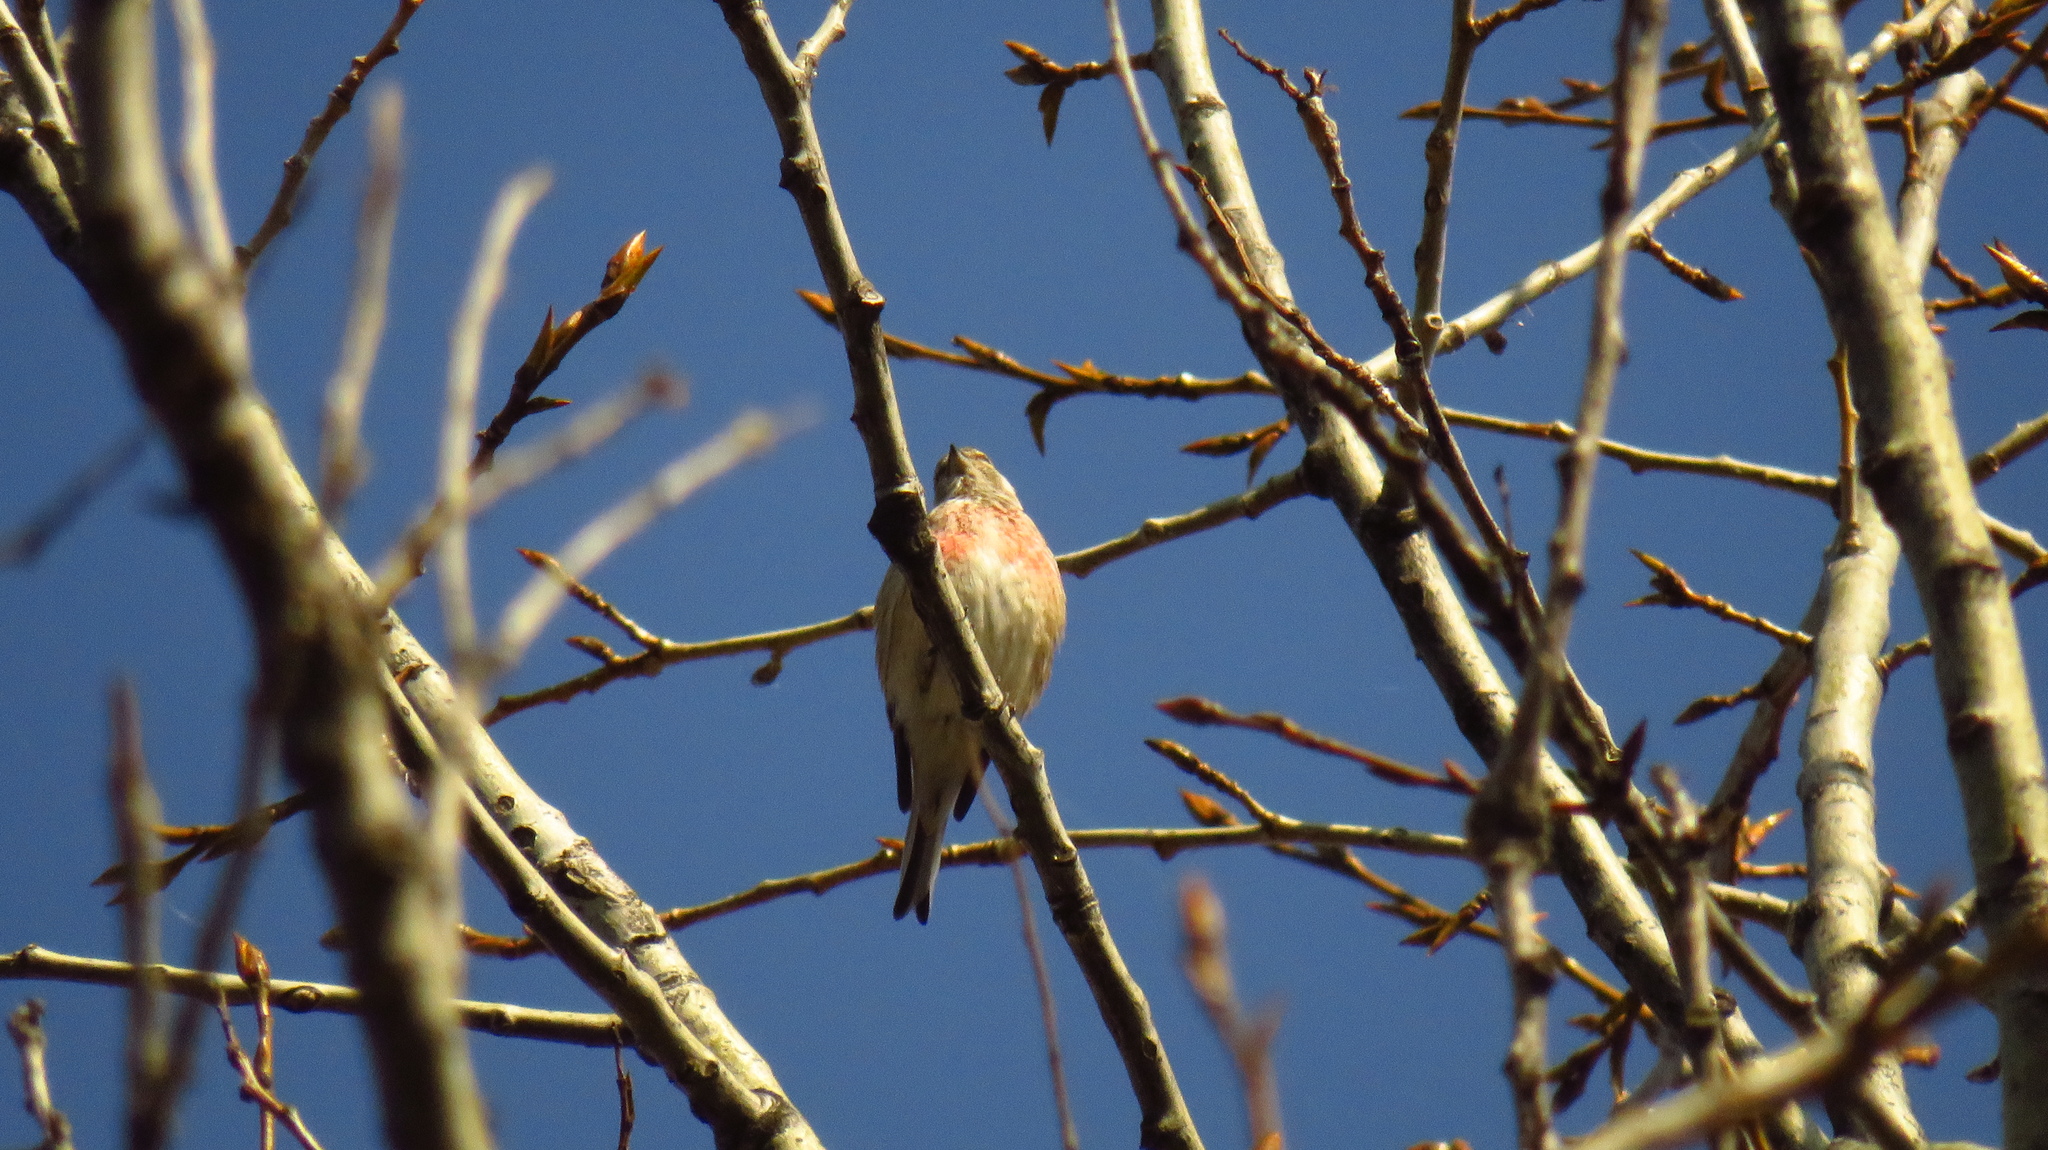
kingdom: Animalia
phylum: Chordata
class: Aves
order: Passeriformes
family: Fringillidae
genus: Linaria
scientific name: Linaria cannabina
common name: Common linnet
